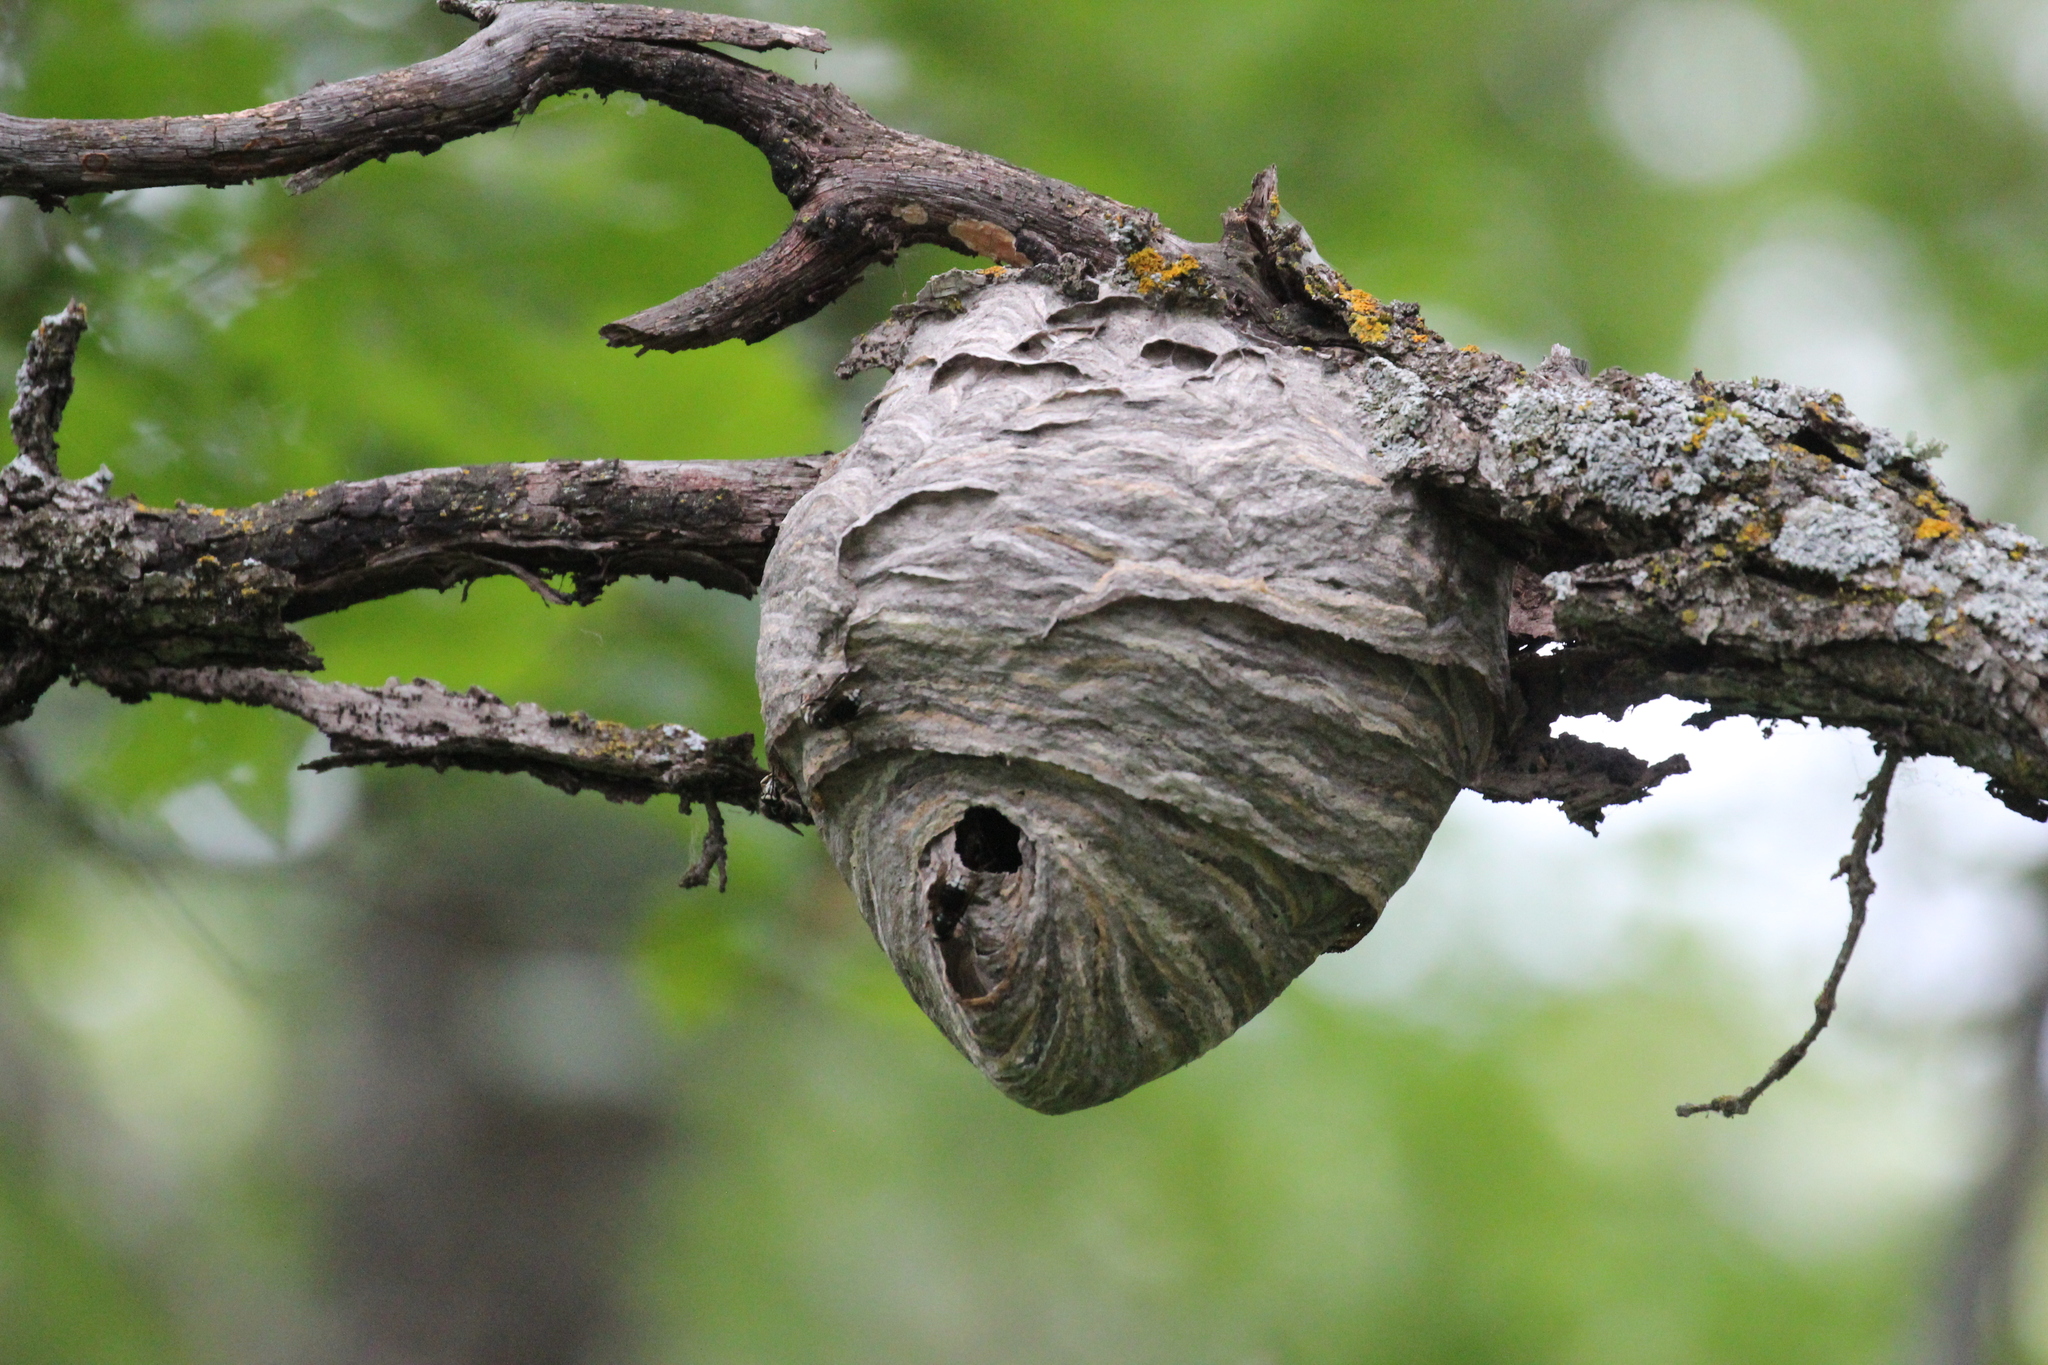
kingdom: Animalia
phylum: Arthropoda
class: Insecta
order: Hymenoptera
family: Vespidae
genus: Dolichovespula
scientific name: Dolichovespula maculata
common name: Bald-faced hornet
